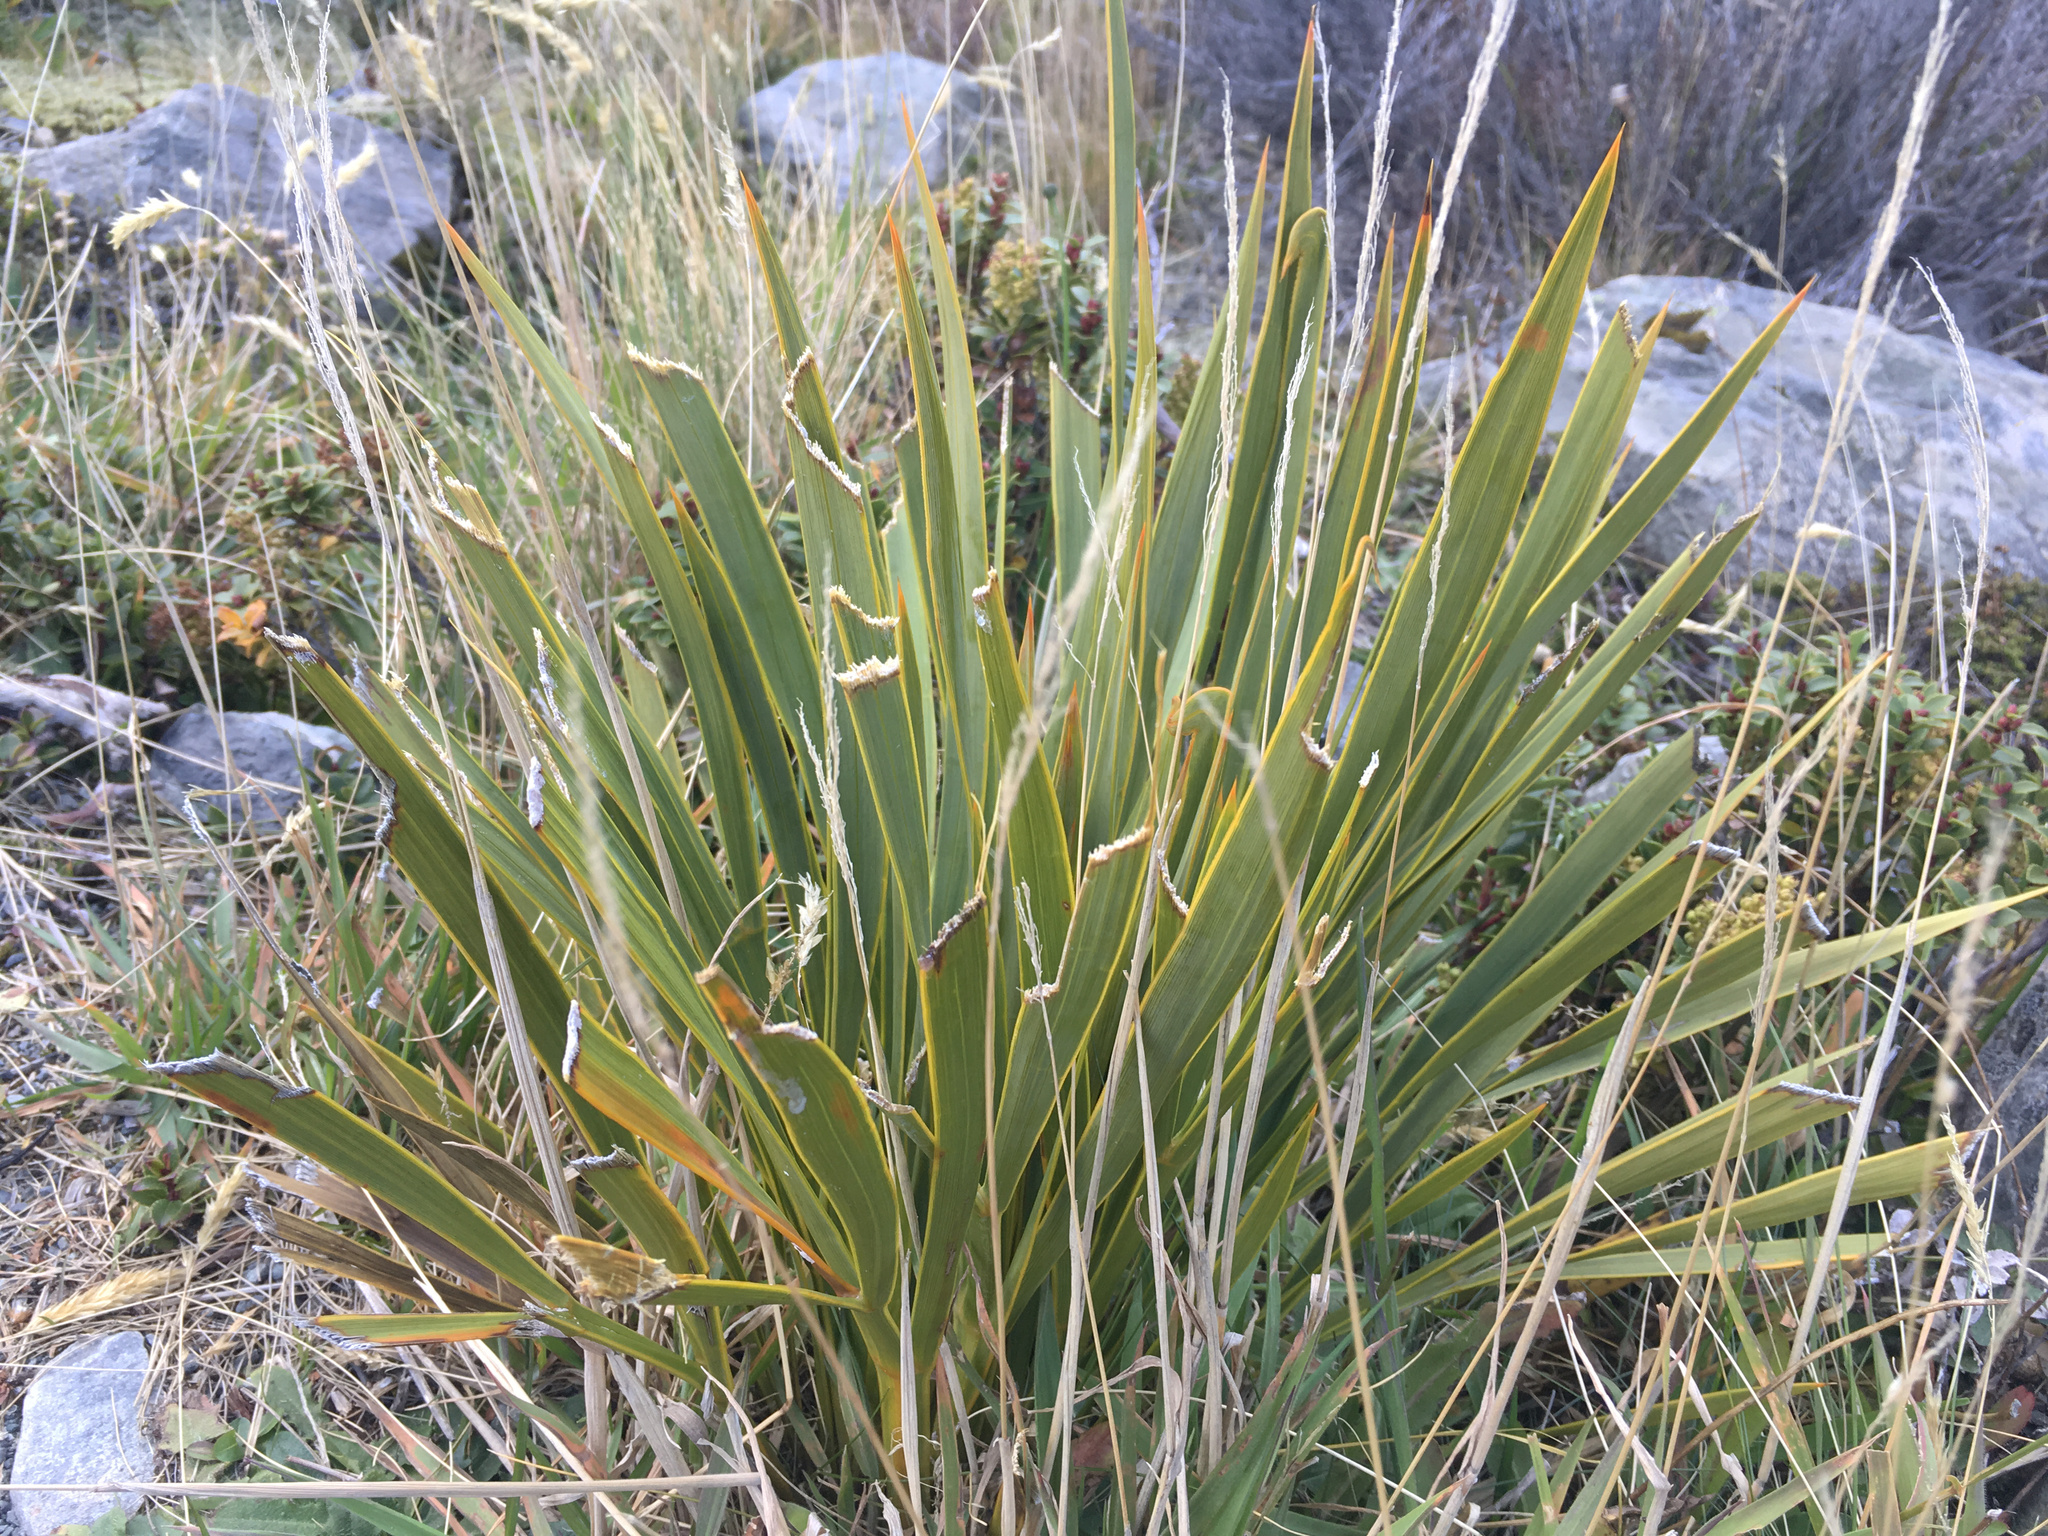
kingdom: Plantae
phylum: Tracheophyta
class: Magnoliopsida
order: Apiales
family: Apiaceae
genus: Aciphylla
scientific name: Aciphylla aurea
